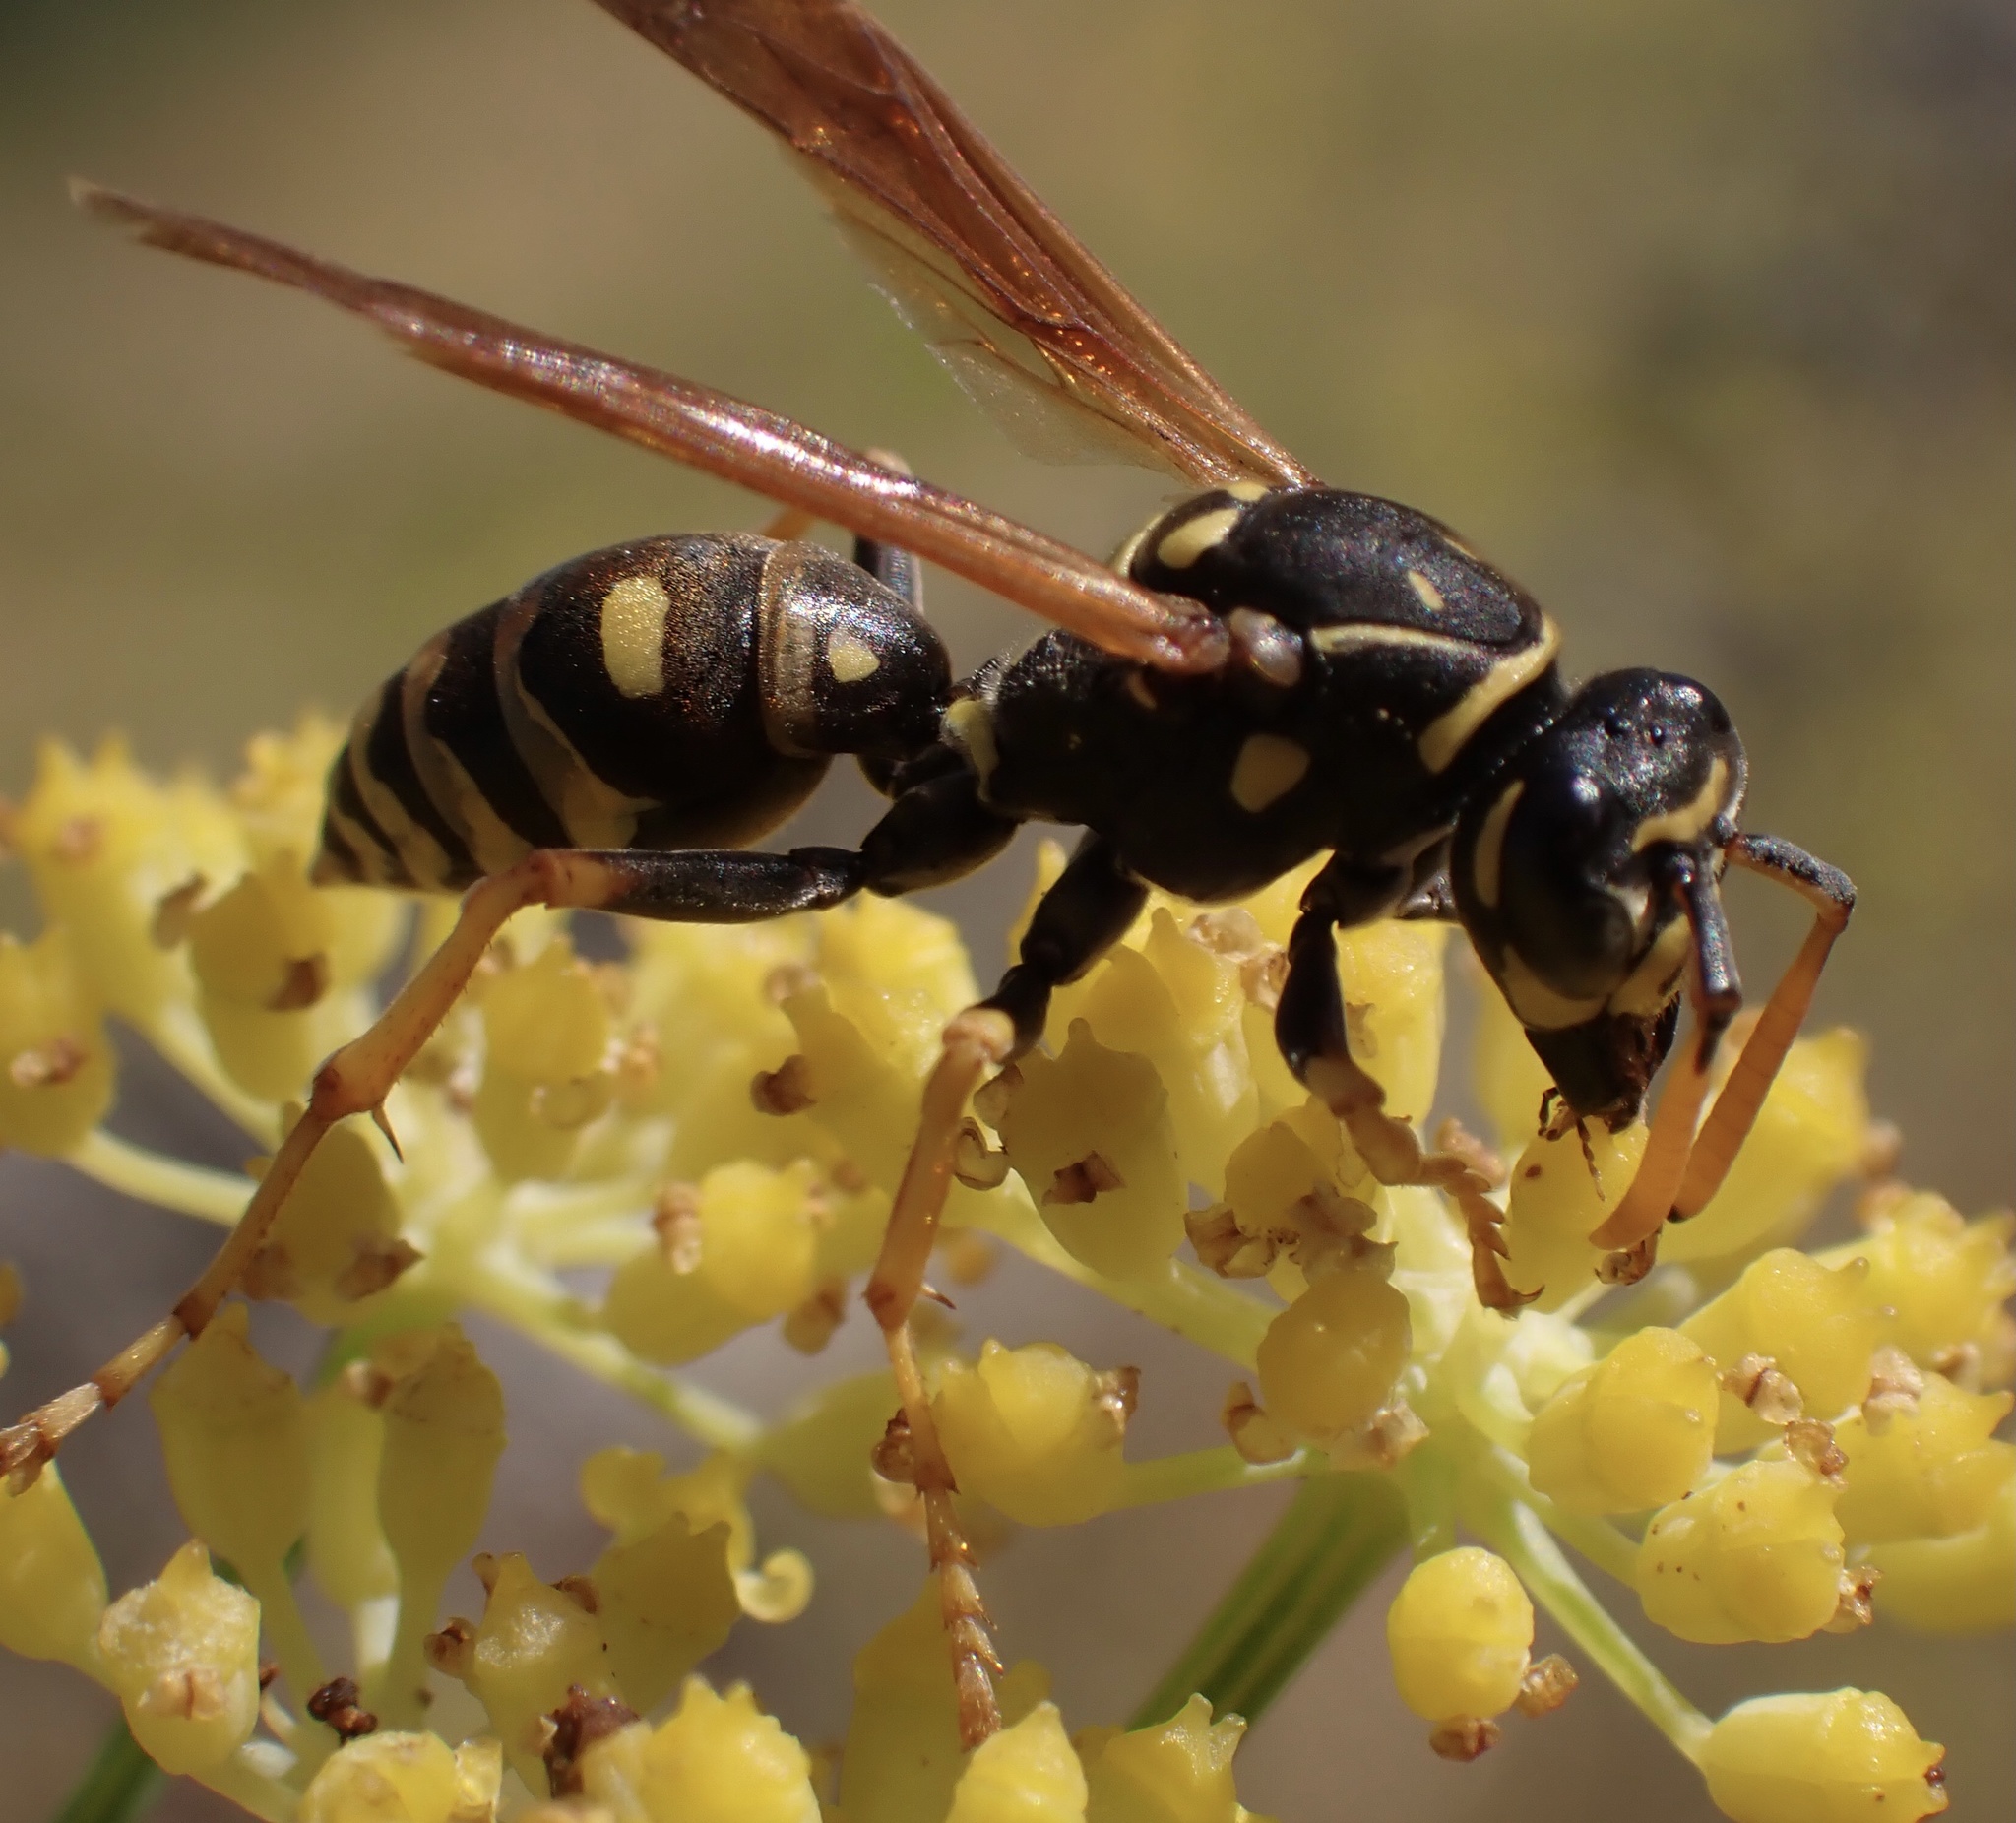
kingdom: Animalia
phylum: Arthropoda
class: Insecta
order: Hymenoptera
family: Eumenidae
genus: Polistes
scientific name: Polistes dominula
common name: Paper wasp
